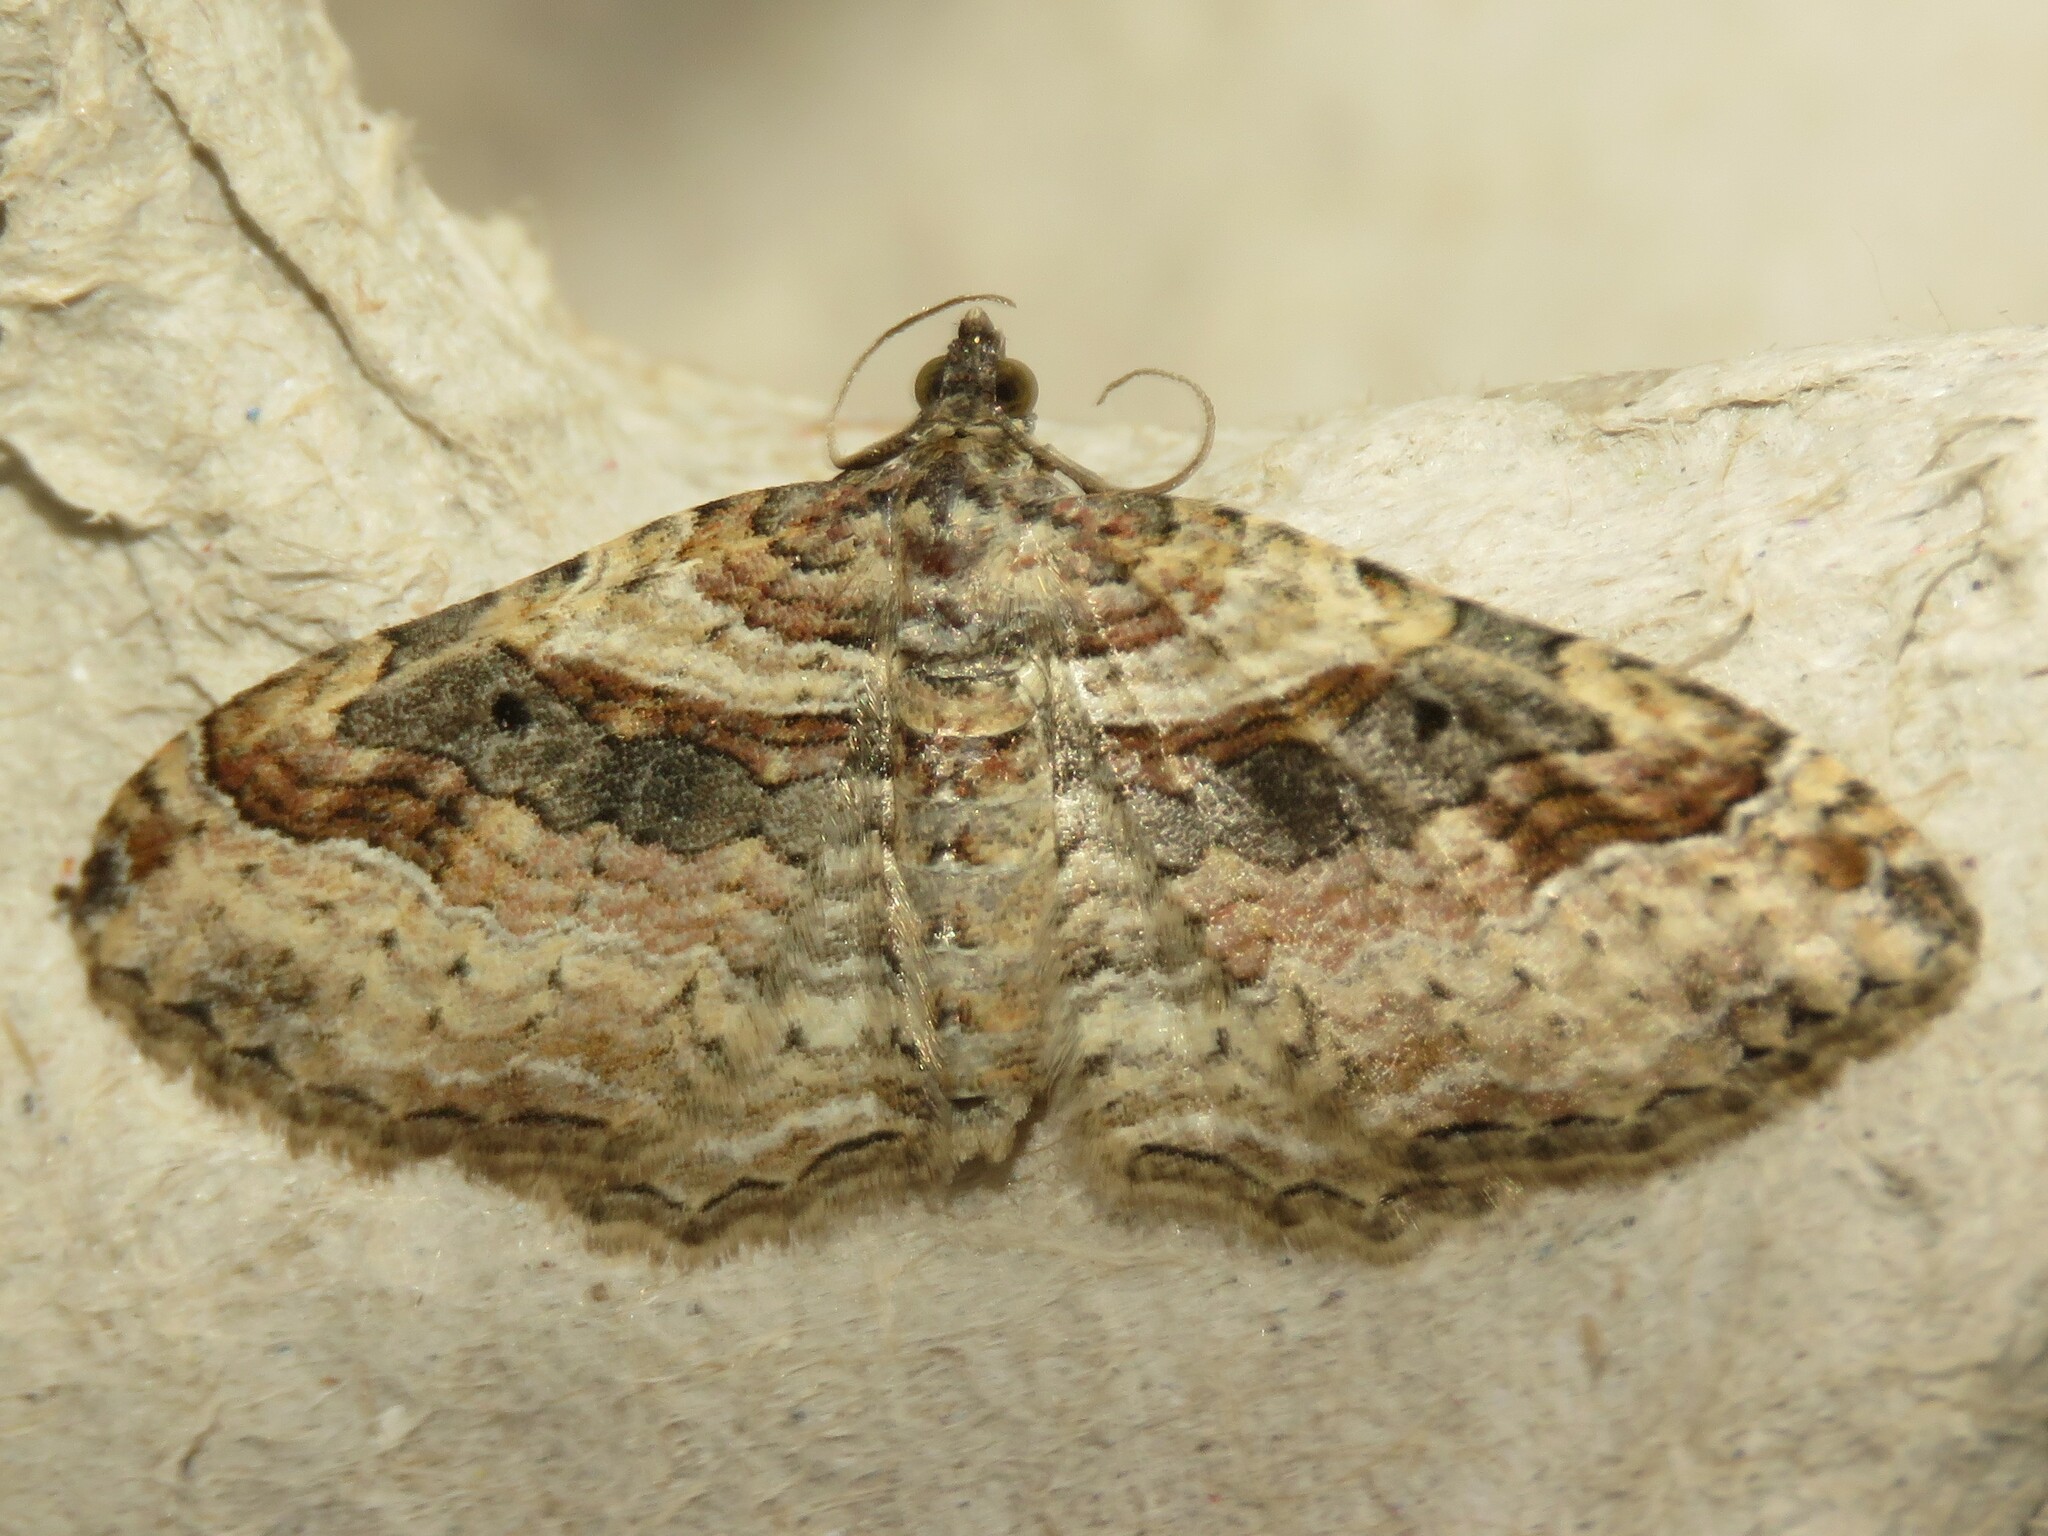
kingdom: Animalia
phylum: Arthropoda
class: Insecta
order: Lepidoptera
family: Geometridae
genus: Costaconvexa
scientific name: Costaconvexa centrostrigaria
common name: Bent-line carpet
